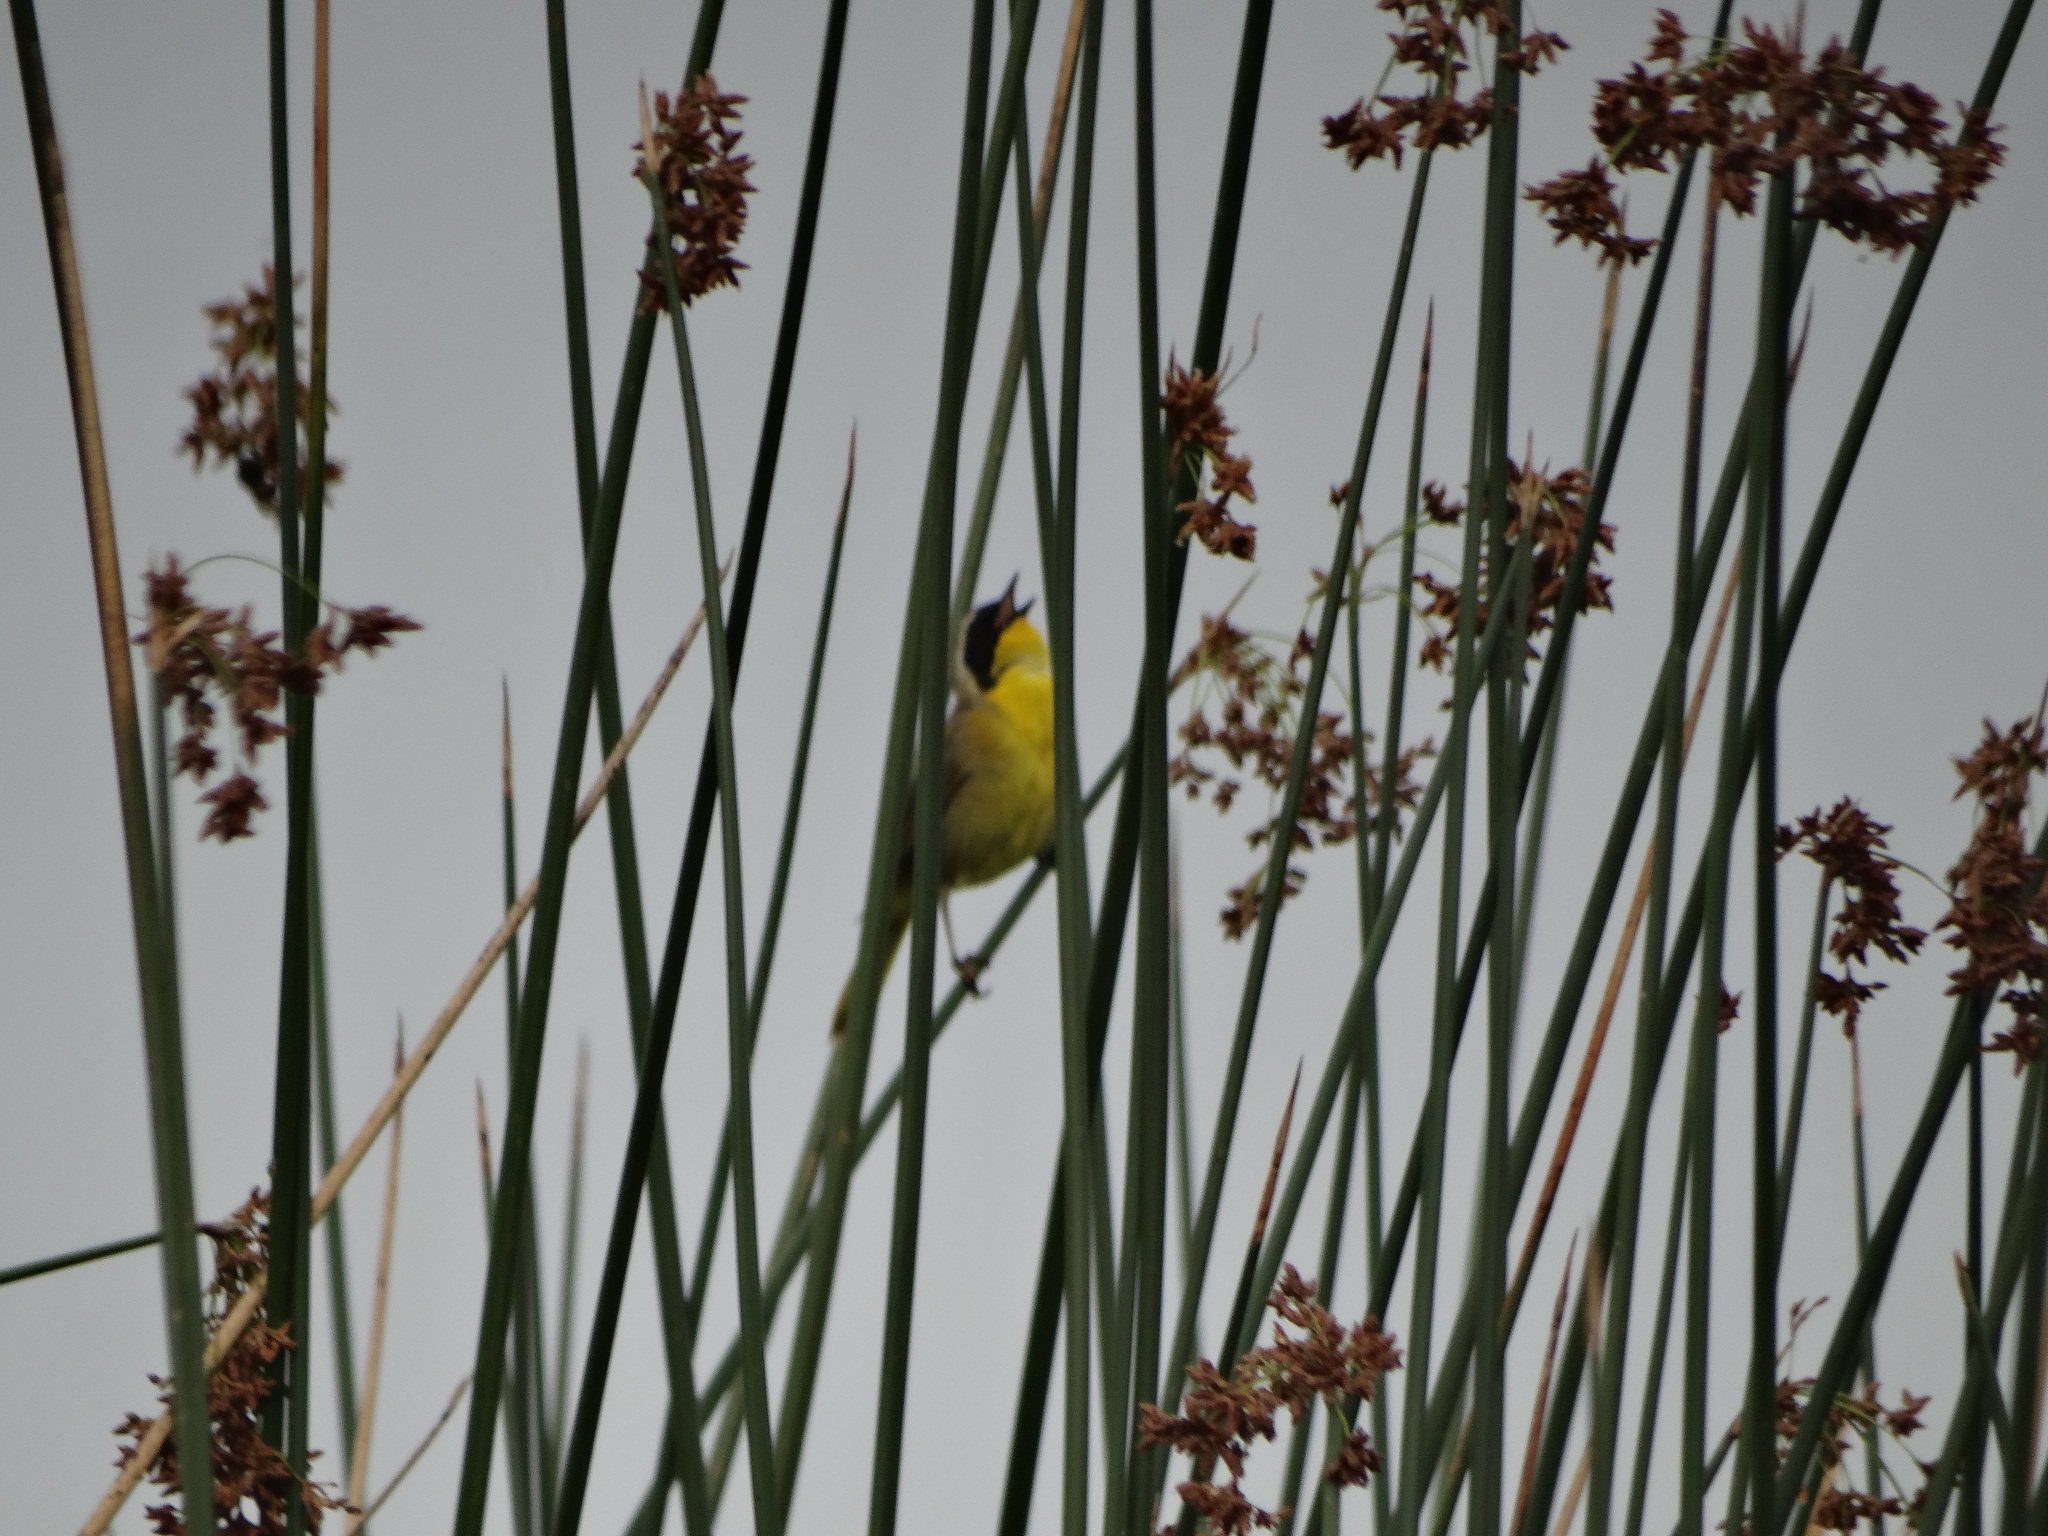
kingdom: Animalia
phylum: Chordata
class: Aves
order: Passeriformes
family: Parulidae
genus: Geothlypis
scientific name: Geothlypis trichas
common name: Common yellowthroat
